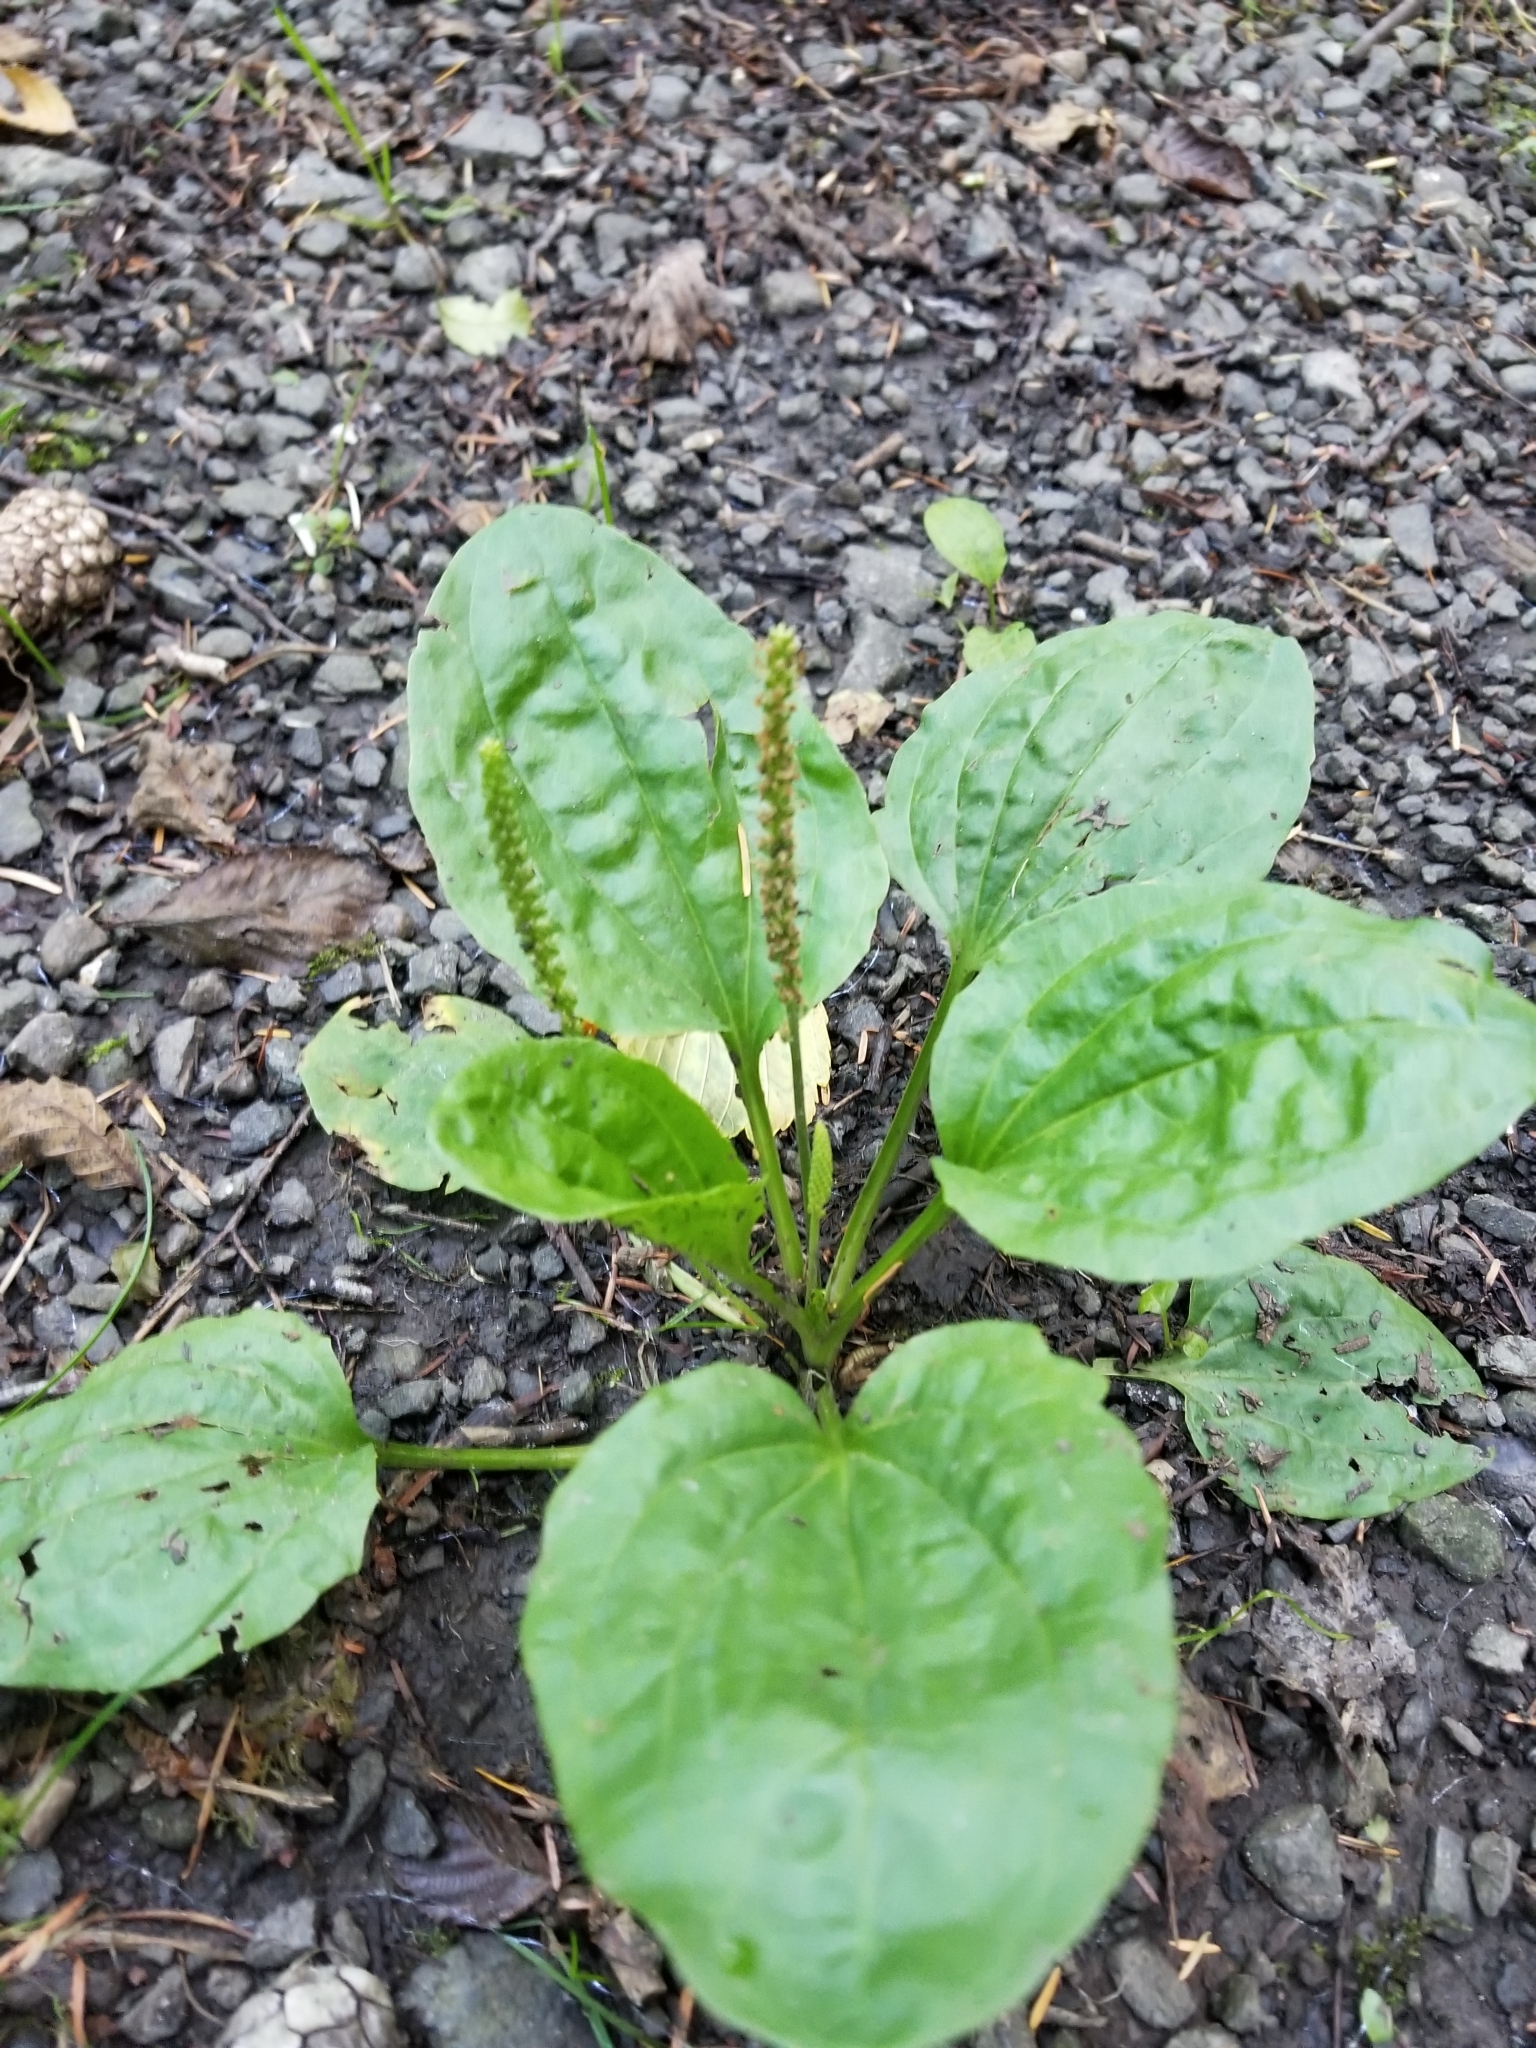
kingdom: Plantae
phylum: Tracheophyta
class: Magnoliopsida
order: Lamiales
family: Plantaginaceae
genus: Plantago
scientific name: Plantago major
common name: Common plantain
